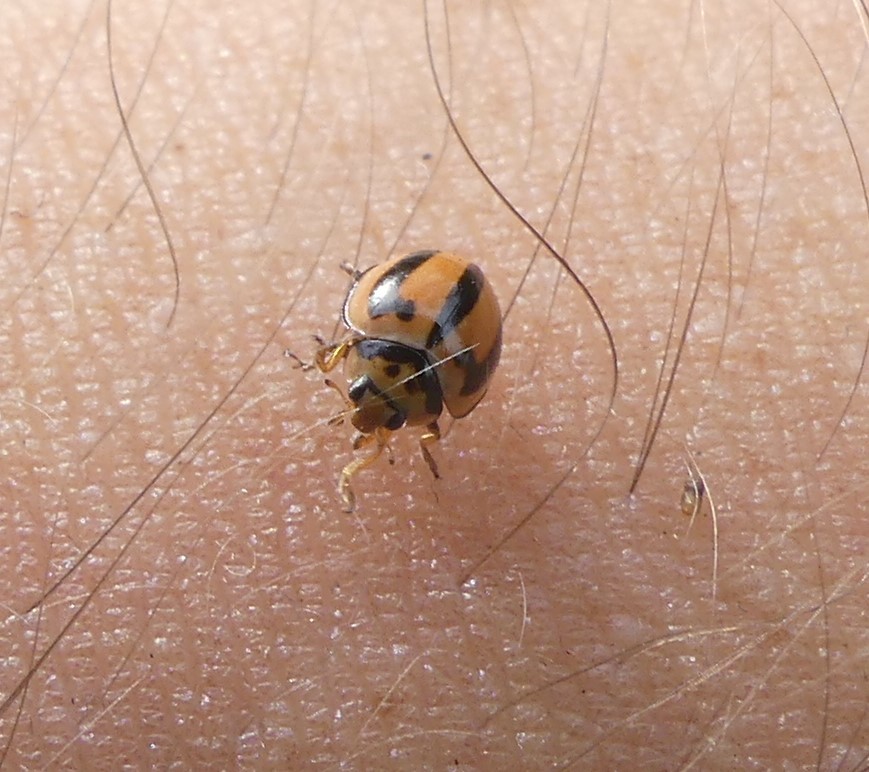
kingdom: Animalia
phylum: Arthropoda
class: Insecta
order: Coleoptera
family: Coccinellidae
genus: Micraspis
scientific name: Micraspis frenata
